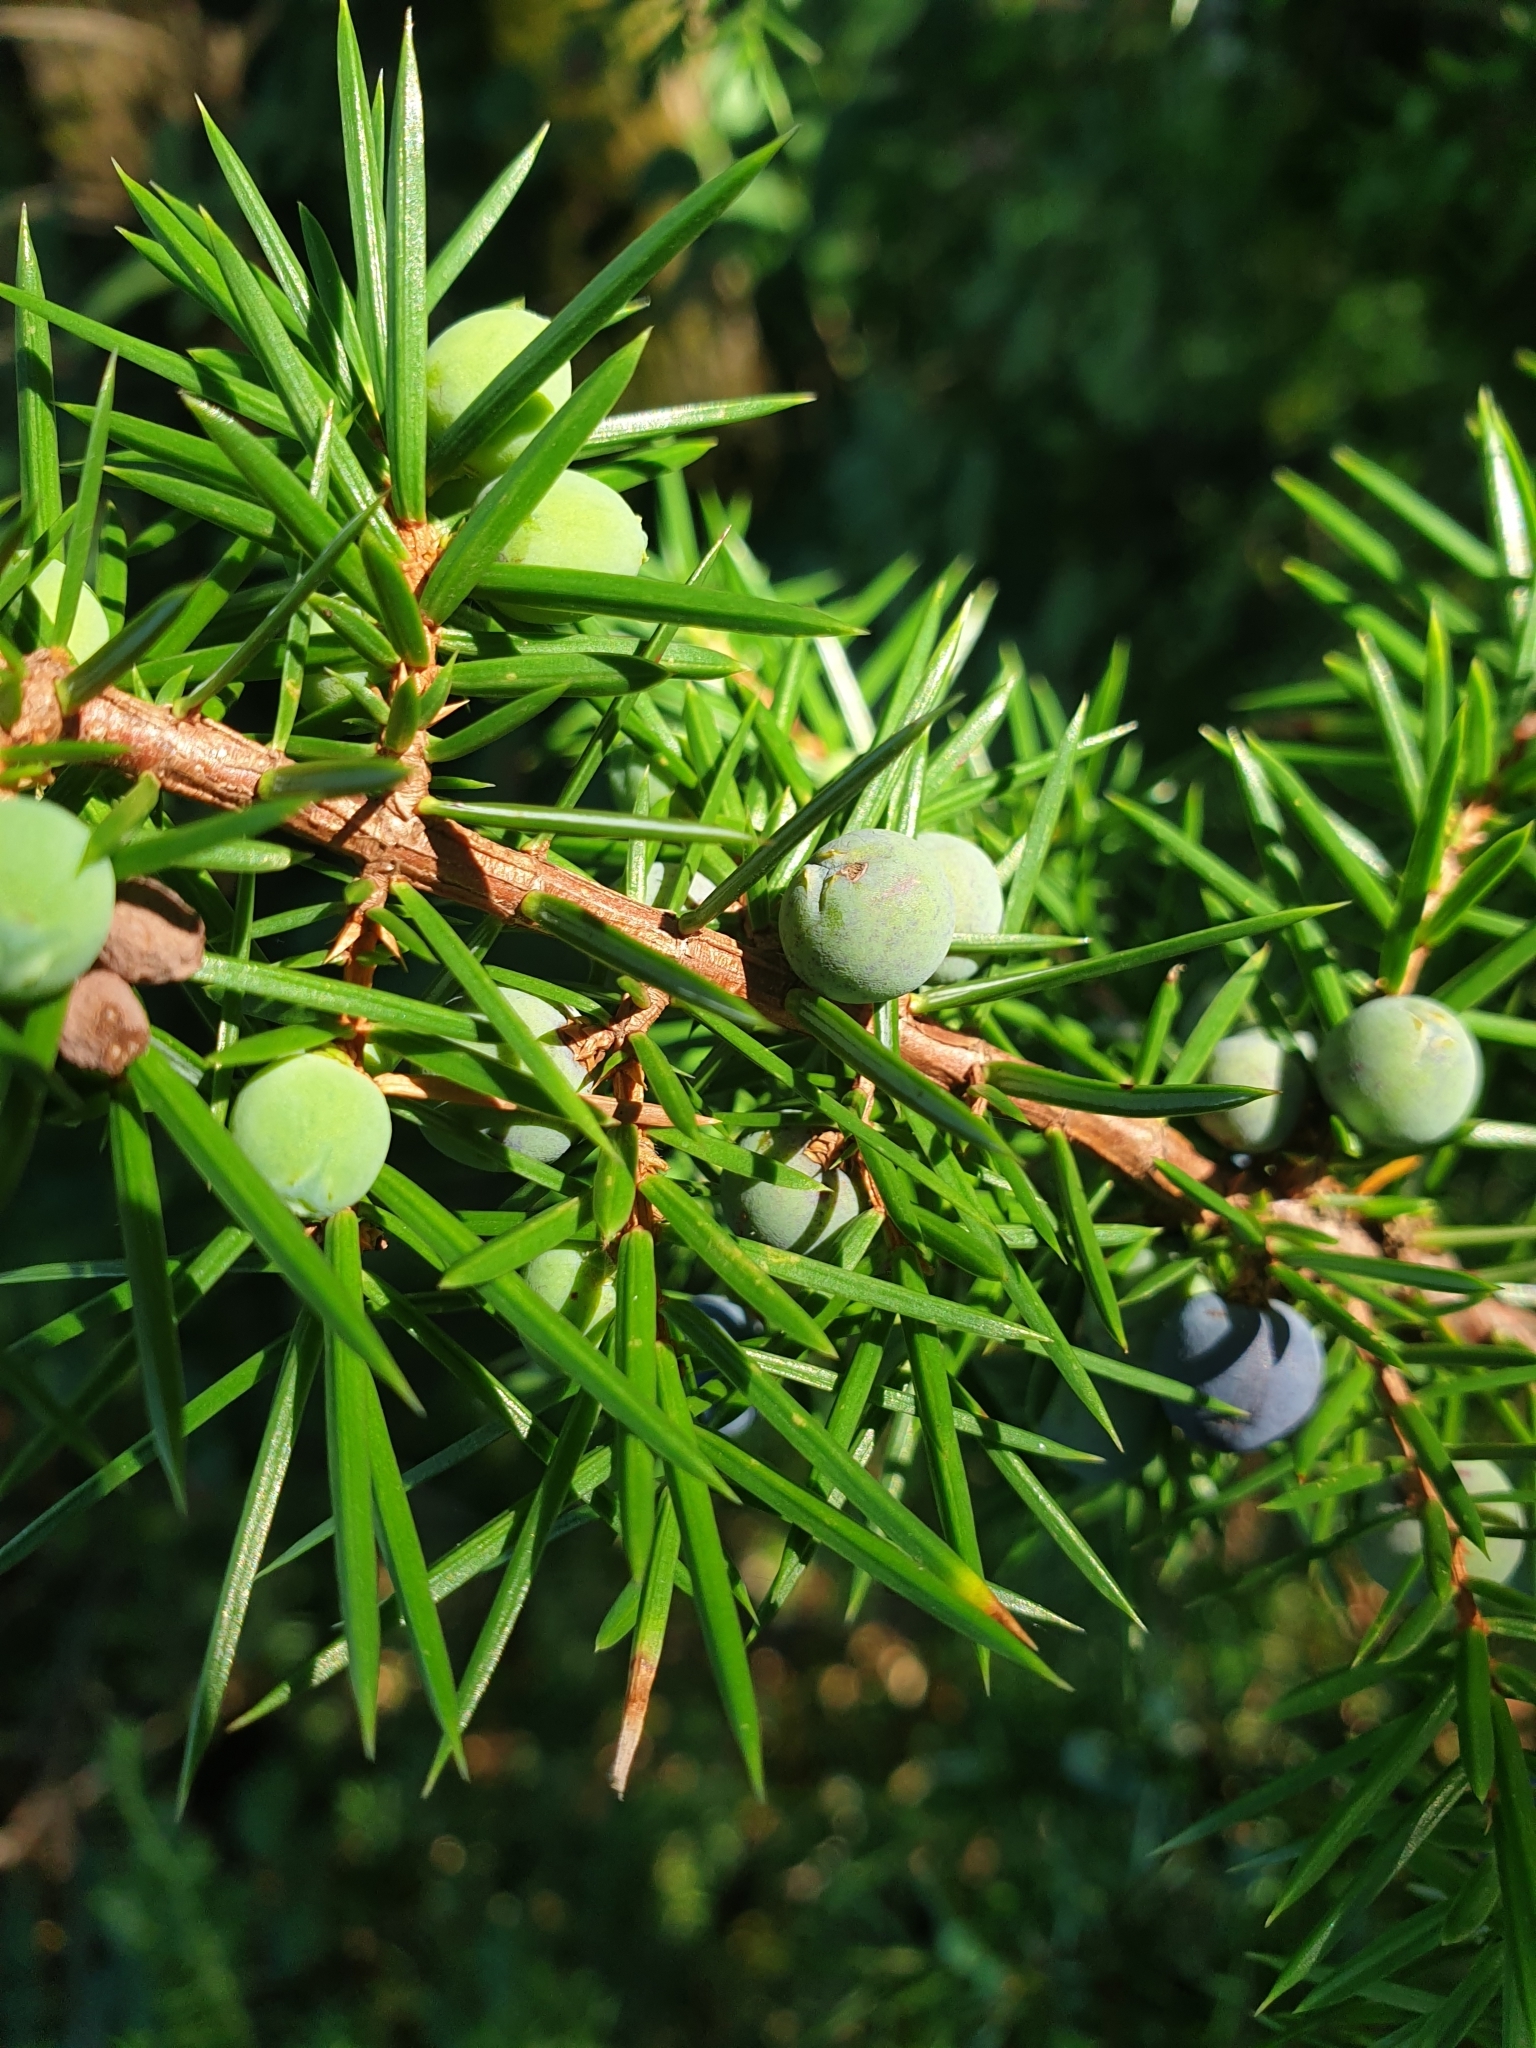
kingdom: Plantae
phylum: Tracheophyta
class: Pinopsida
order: Pinales
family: Cupressaceae
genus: Juniperus
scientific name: Juniperus communis
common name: Common juniper
